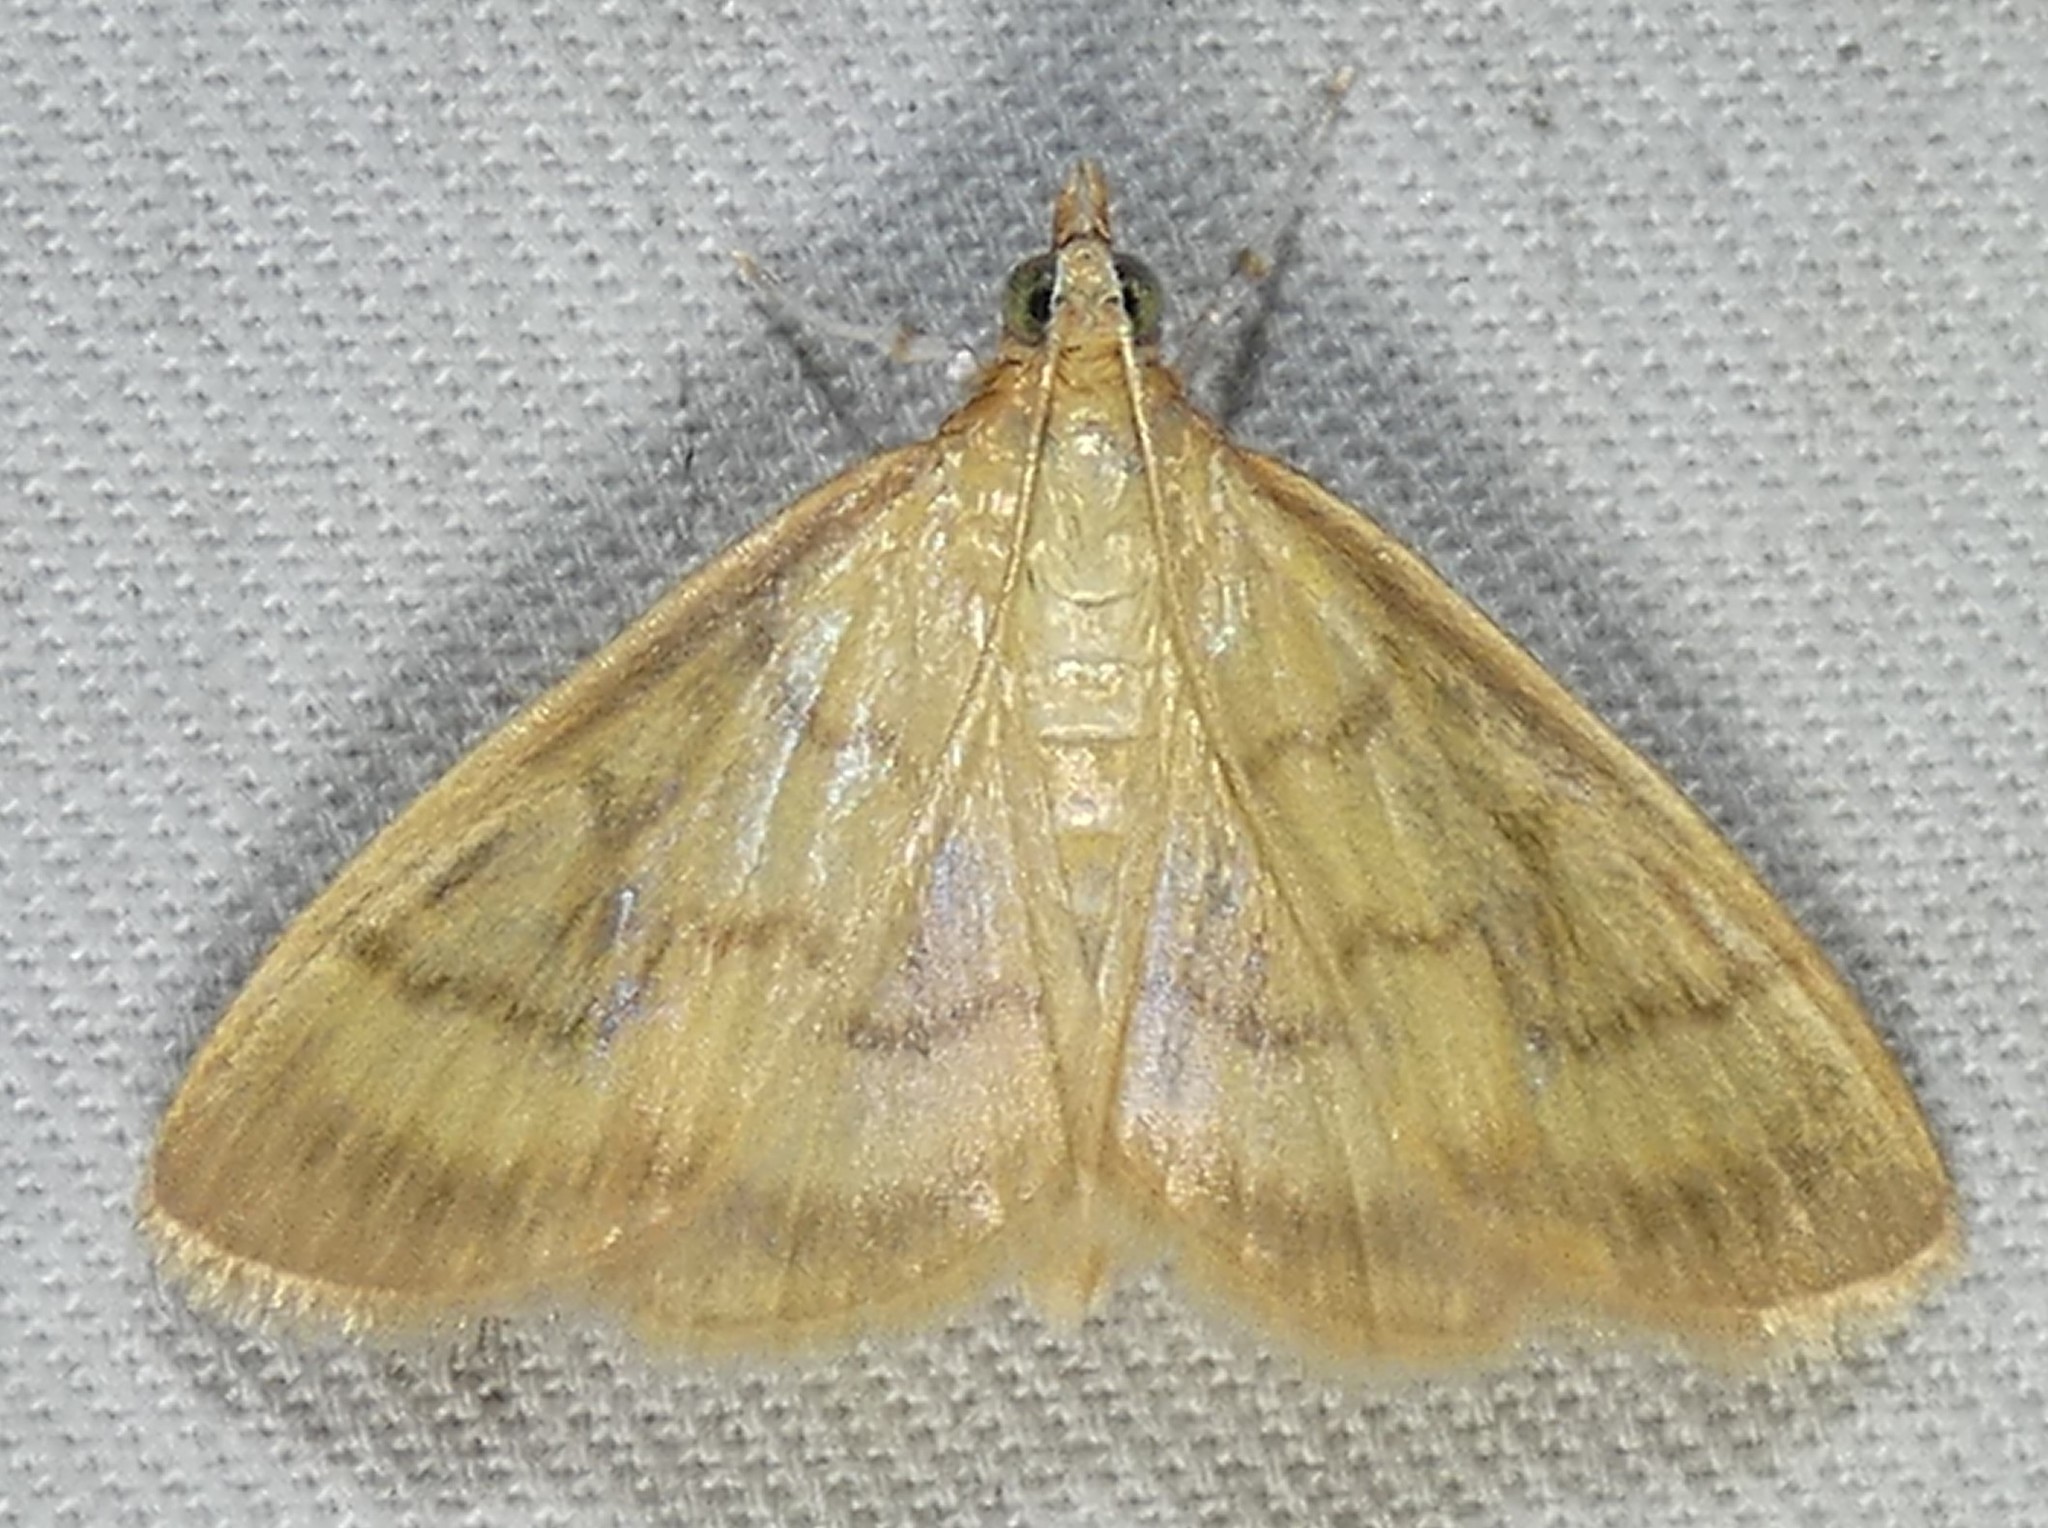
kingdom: Animalia
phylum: Arthropoda
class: Insecta
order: Lepidoptera
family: Crambidae
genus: Crocidophora
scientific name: Crocidophora tuberculalis
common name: Pale-winged crocidiphora moth
